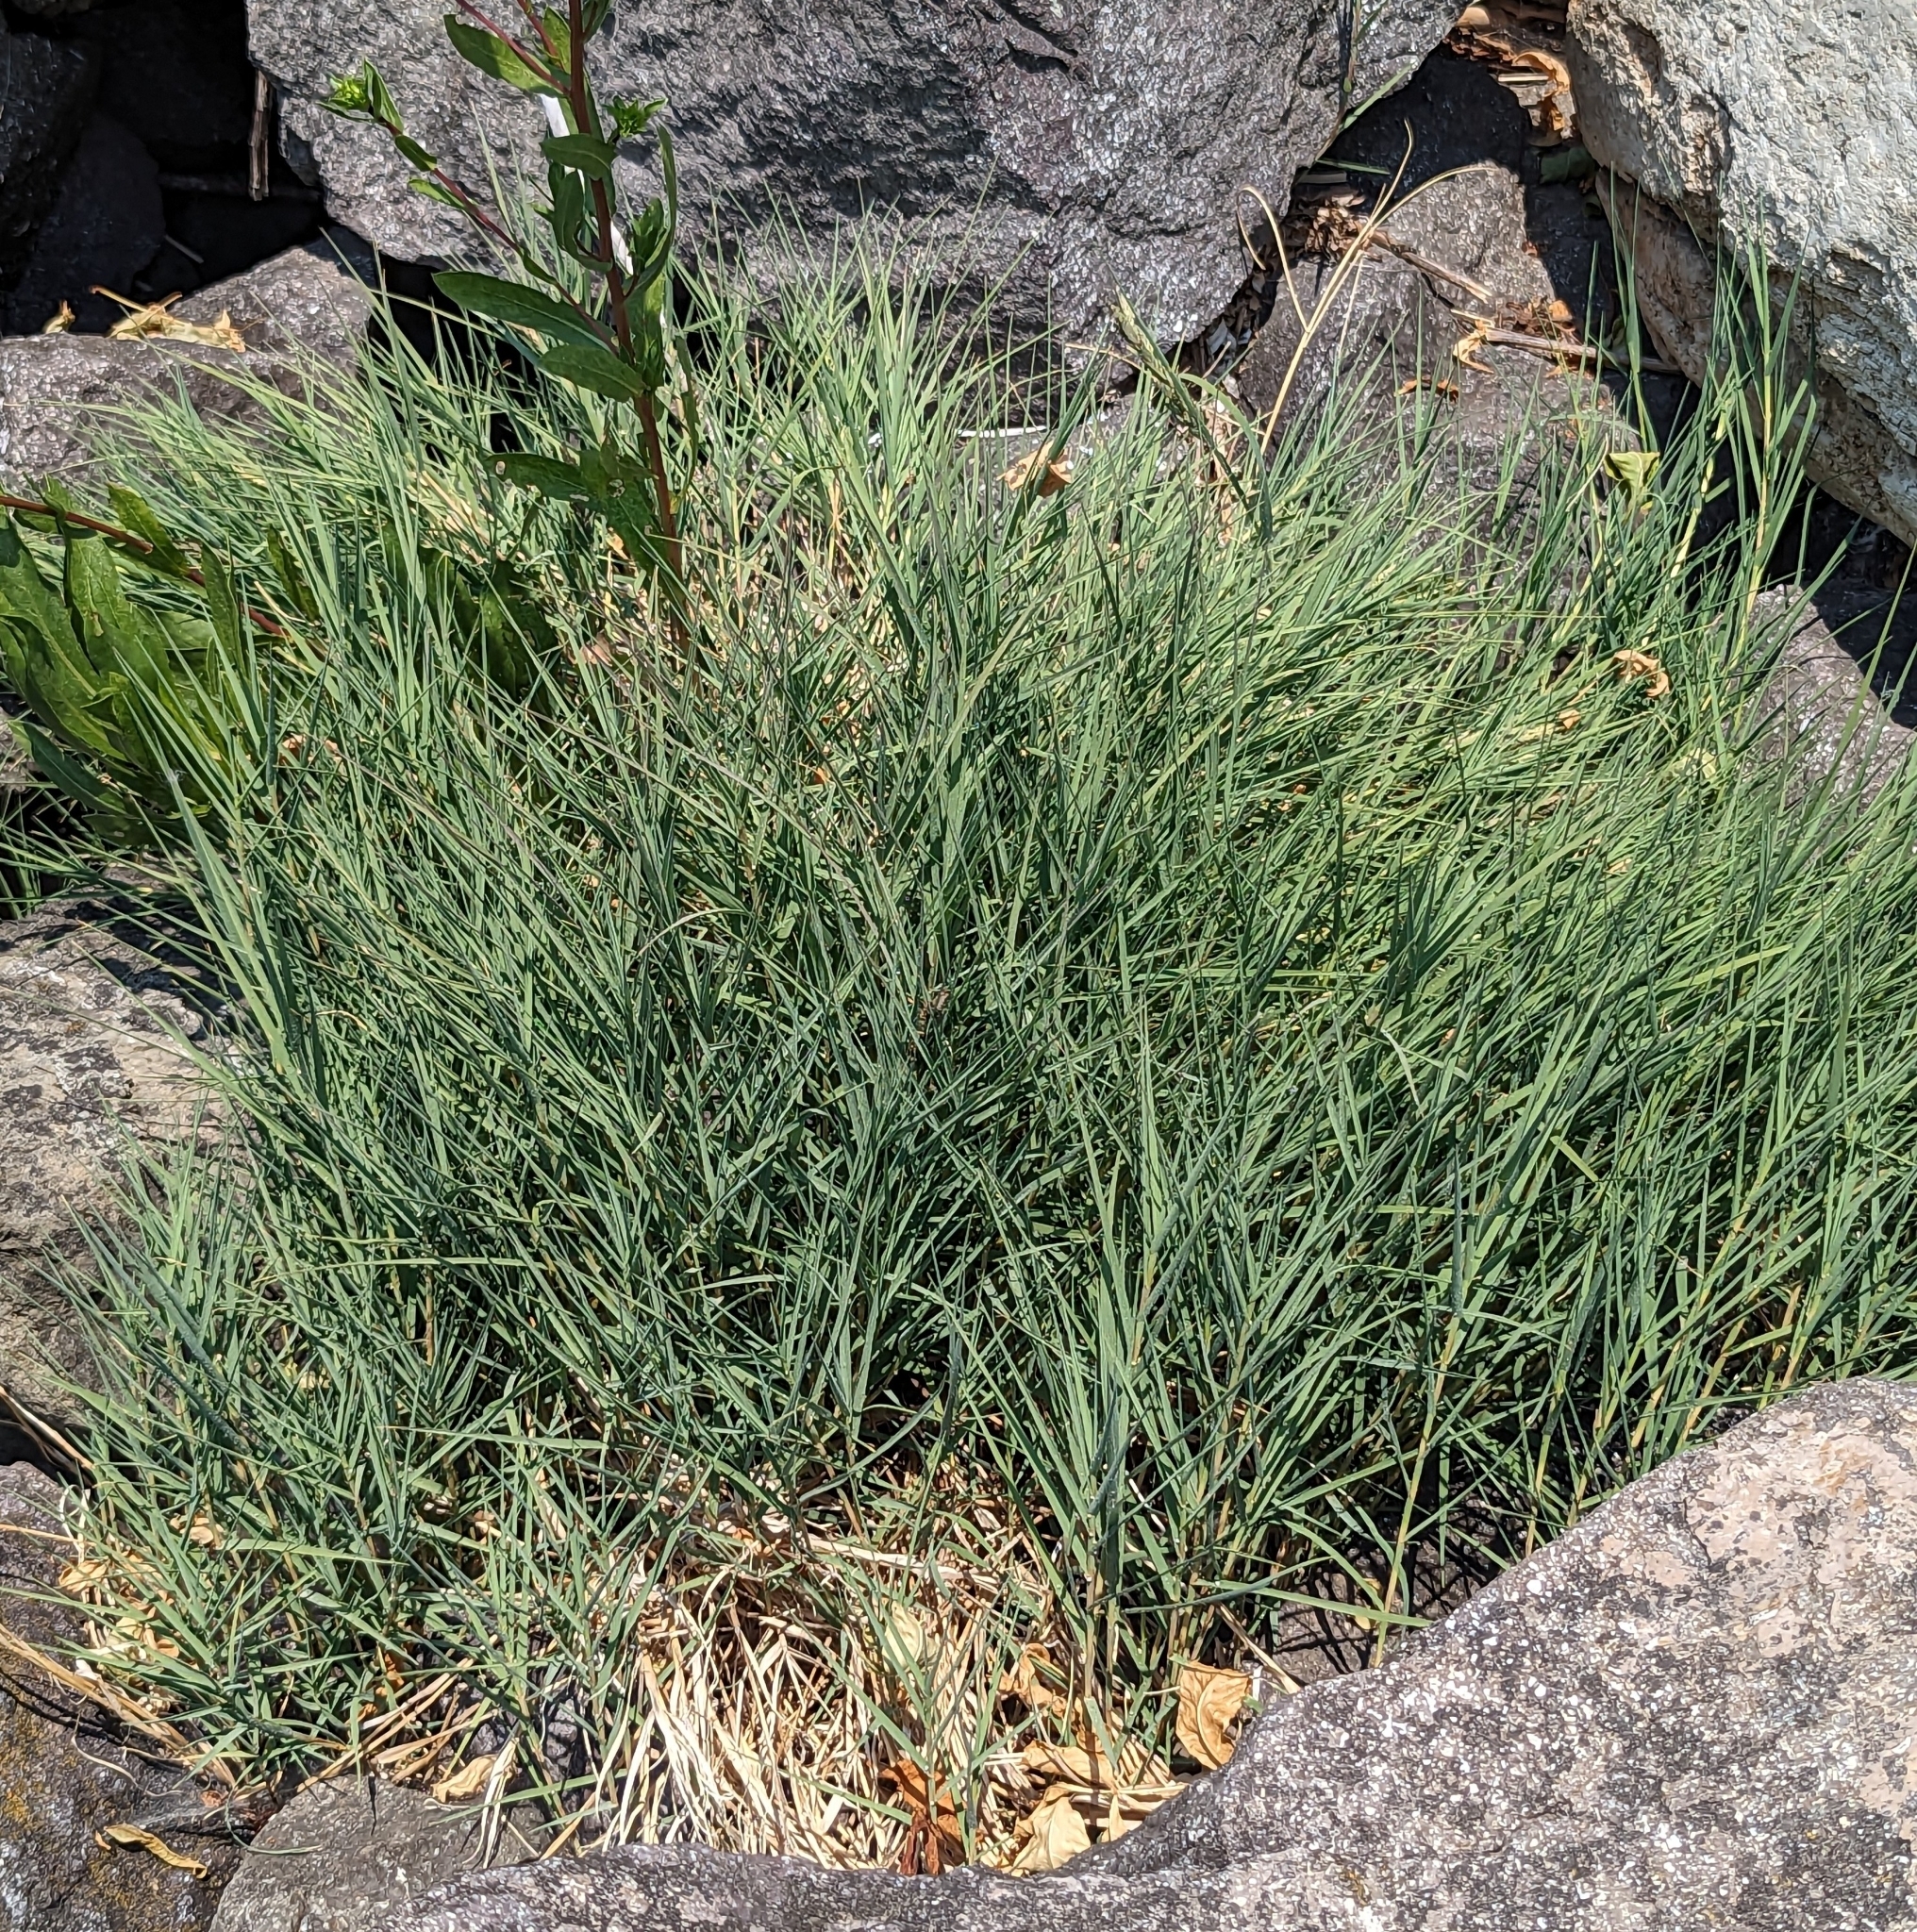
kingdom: Plantae
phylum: Tracheophyta
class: Liliopsida
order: Poales
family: Poaceae
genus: Distichlis
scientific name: Distichlis spicata
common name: Saltgrass
